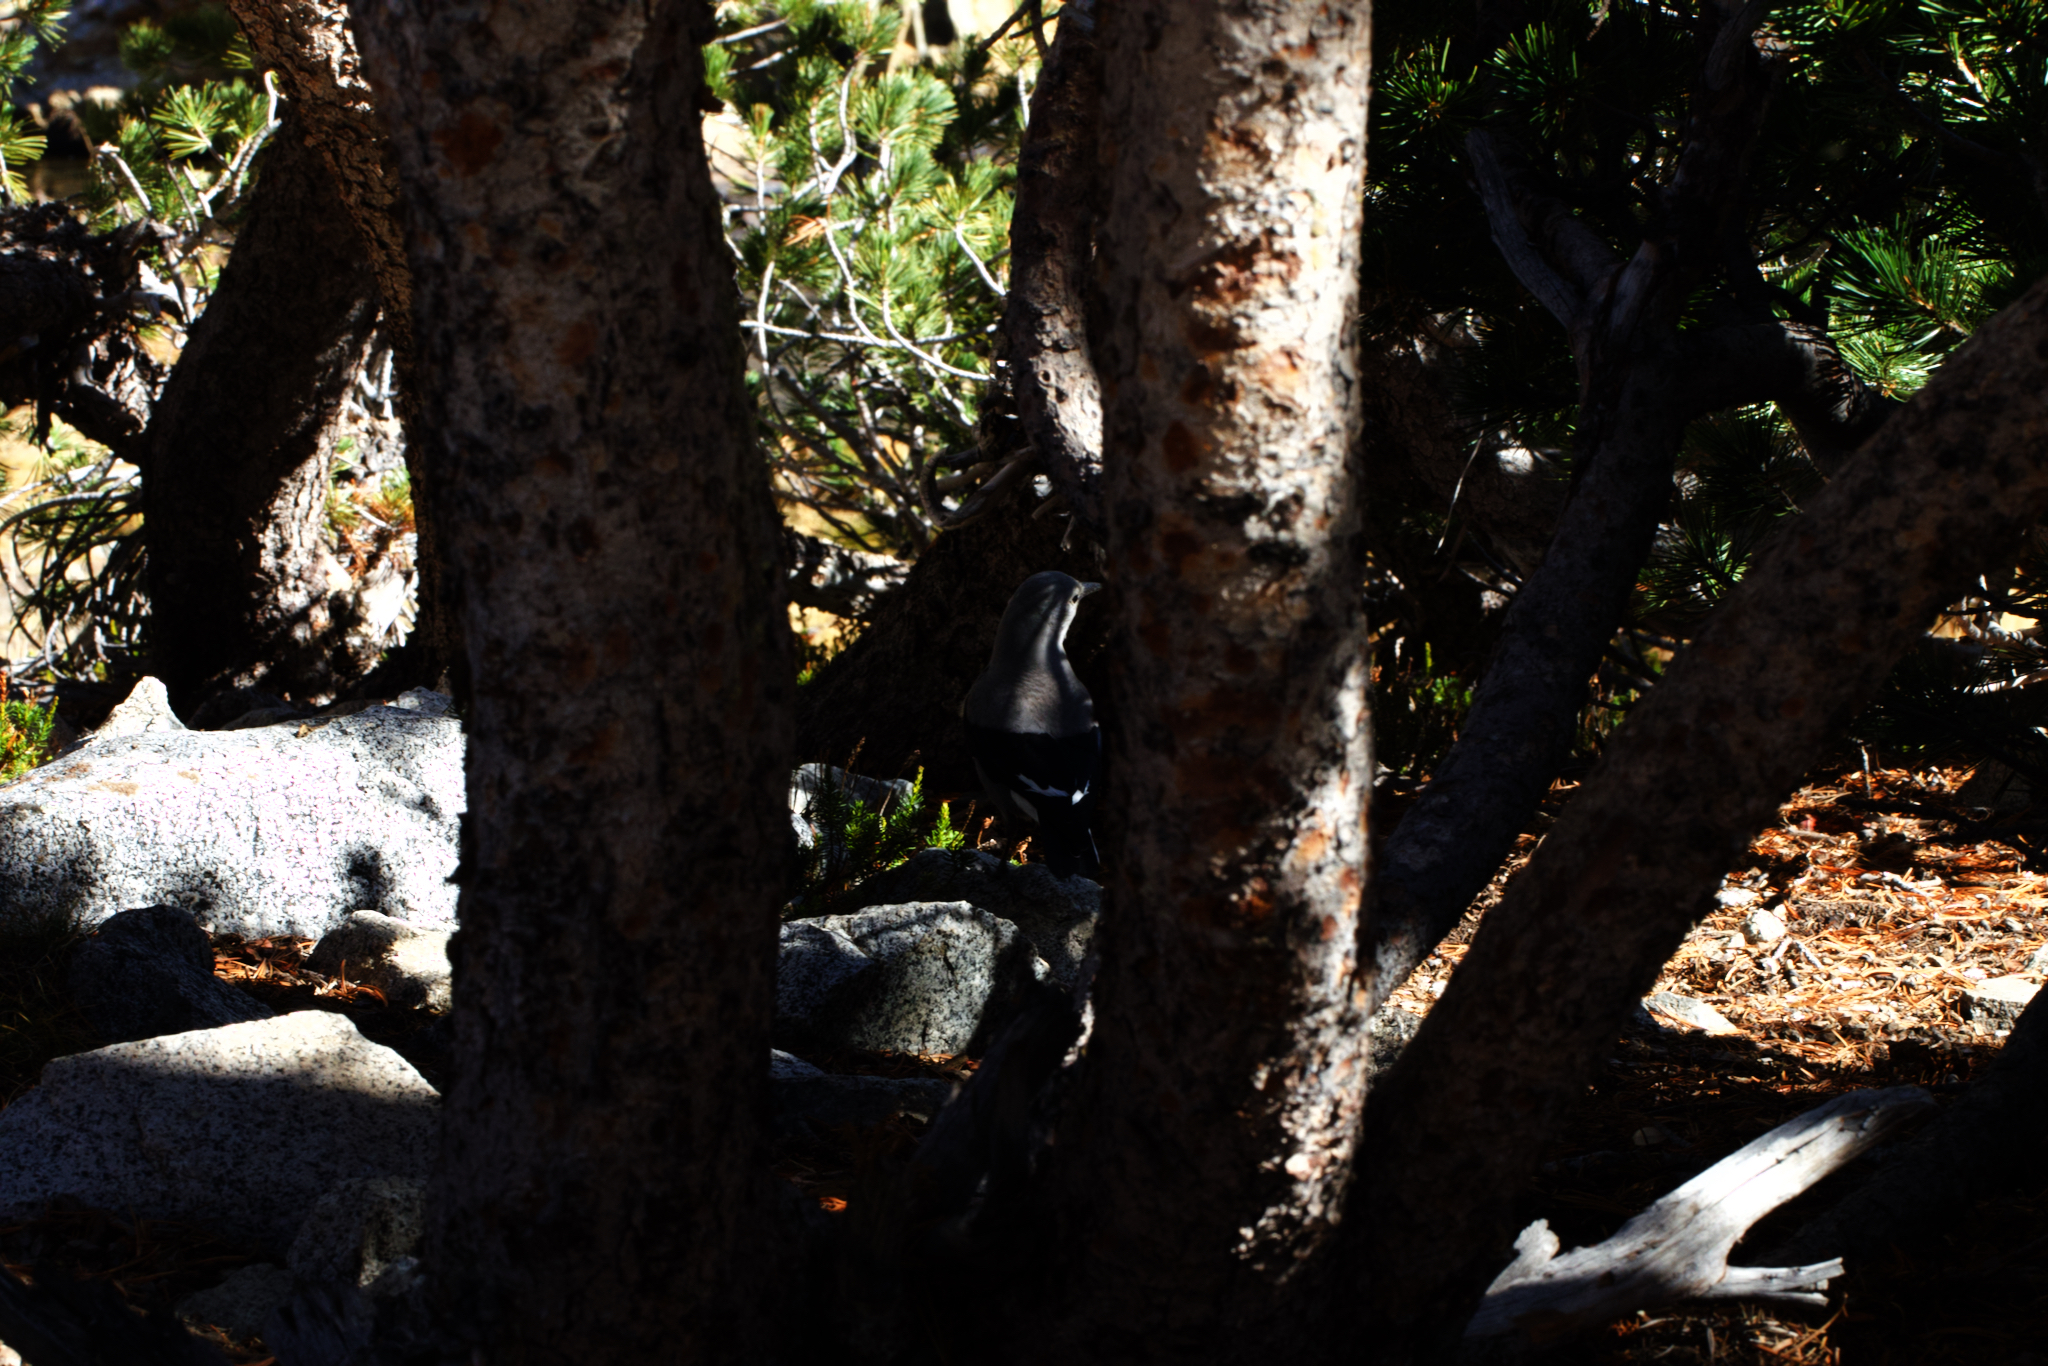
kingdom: Plantae
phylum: Tracheophyta
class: Pinopsida
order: Pinales
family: Pinaceae
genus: Pinus
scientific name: Pinus albicaulis
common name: Whitebark pine
